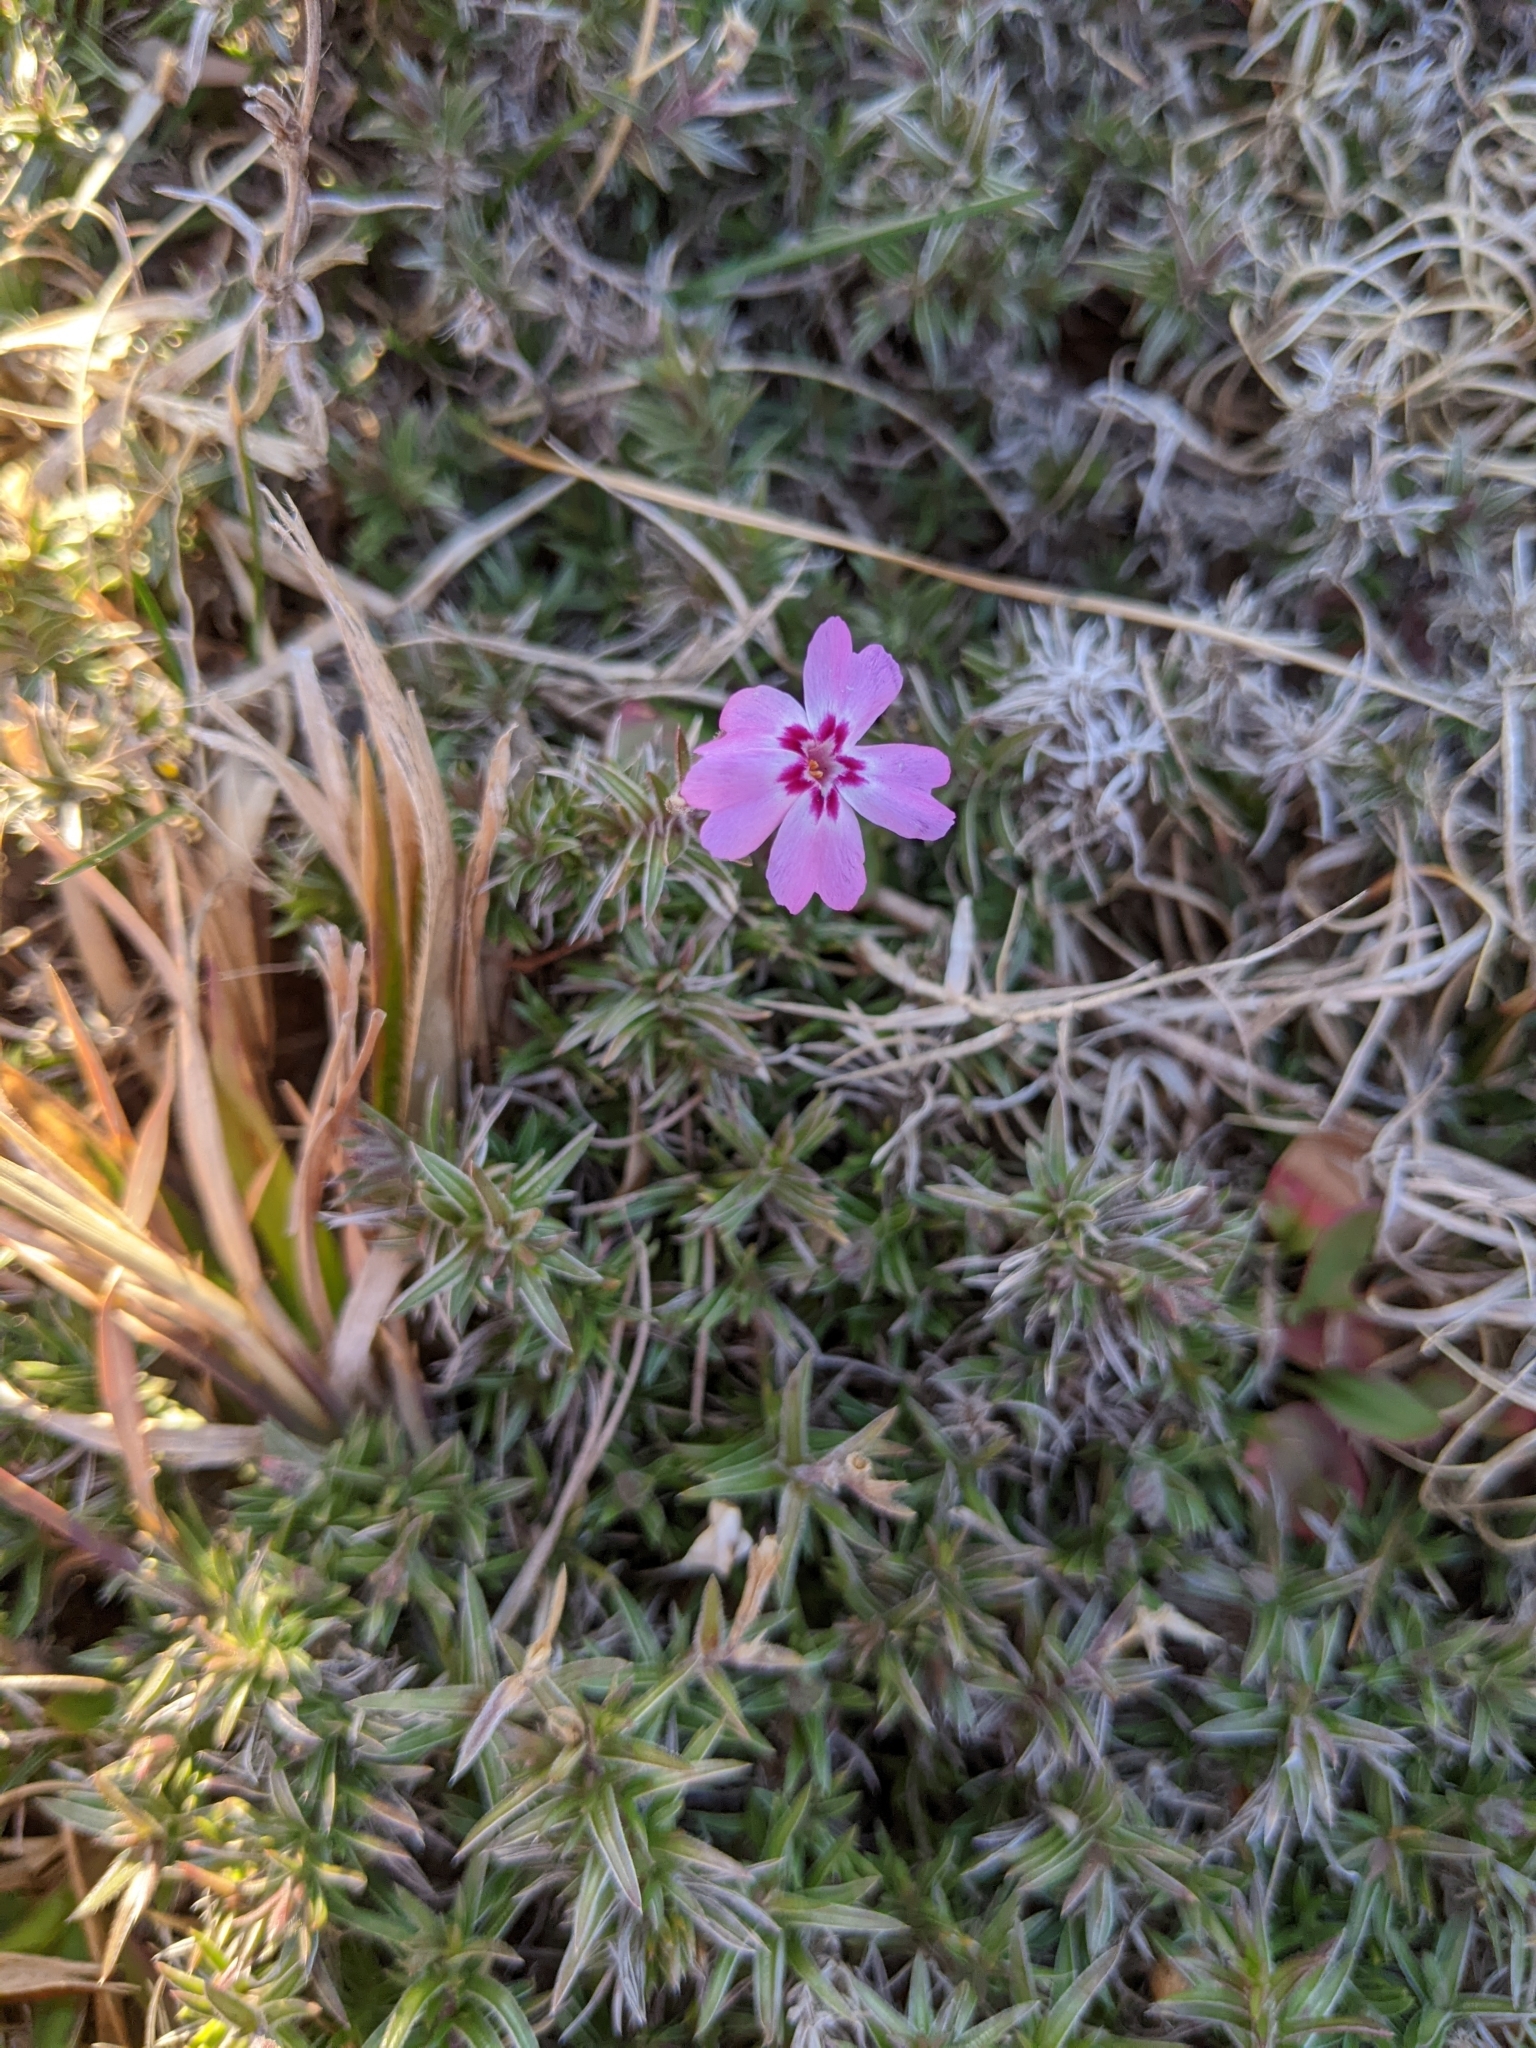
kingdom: Plantae
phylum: Tracheophyta
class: Magnoliopsida
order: Ericales
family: Polemoniaceae
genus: Phlox
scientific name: Phlox subulata
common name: Moss phlox
